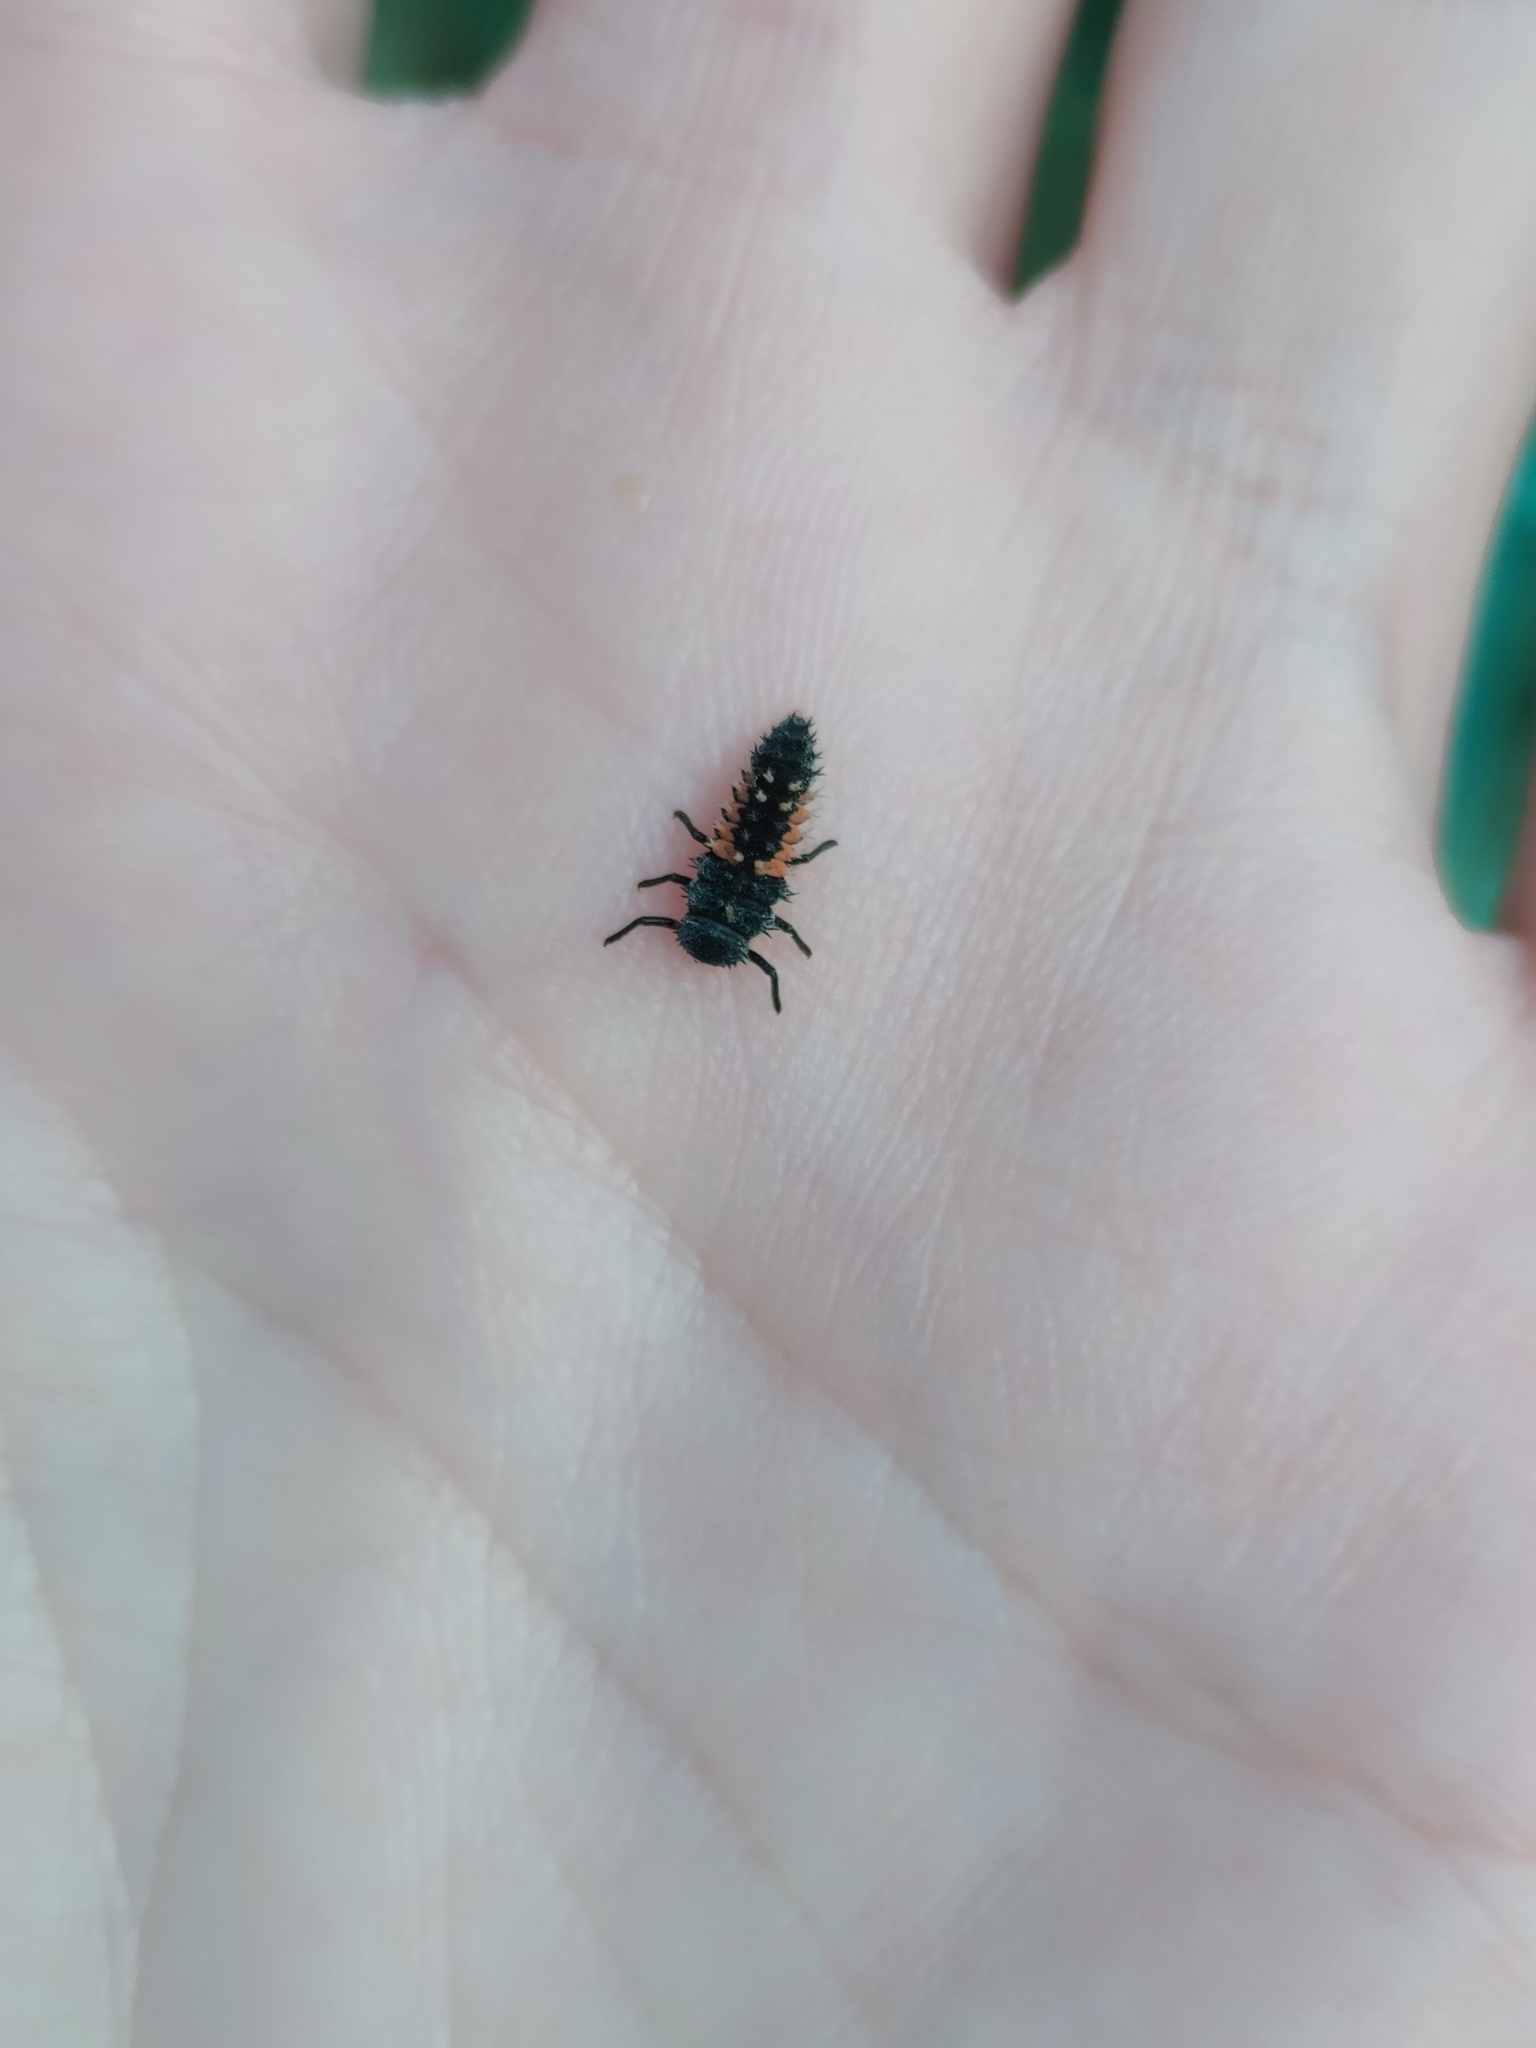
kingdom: Animalia
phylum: Arthropoda
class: Insecta
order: Coleoptera
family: Coccinellidae
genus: Harmonia
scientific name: Harmonia axyridis
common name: Harlequin ladybird
